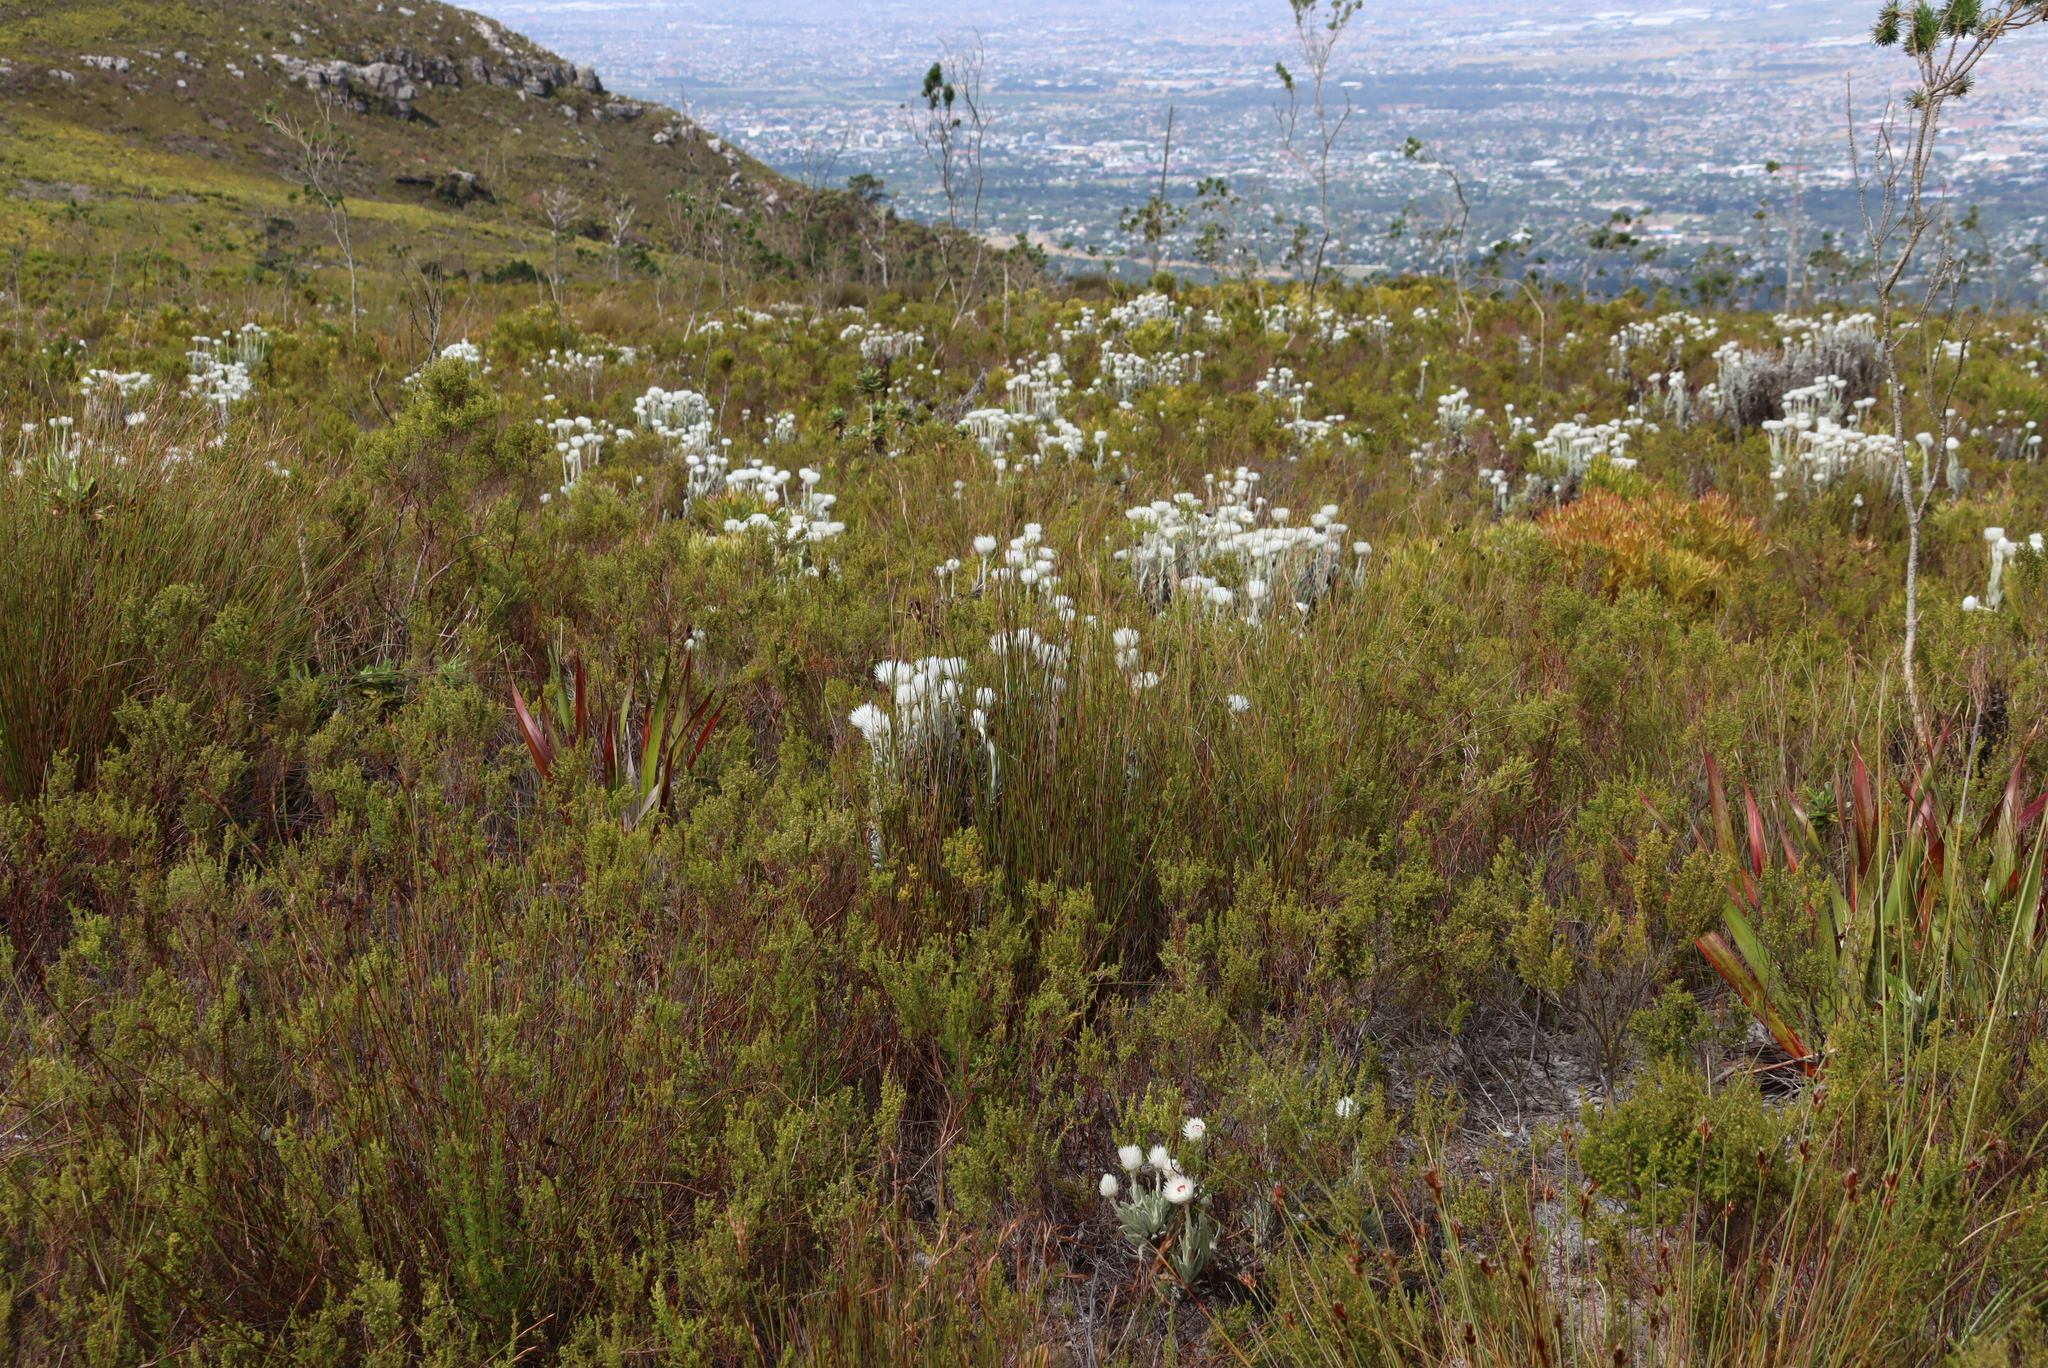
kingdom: Plantae
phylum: Tracheophyta
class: Magnoliopsida
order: Asterales
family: Asteraceae
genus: Syncarpha
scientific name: Syncarpha vestita
